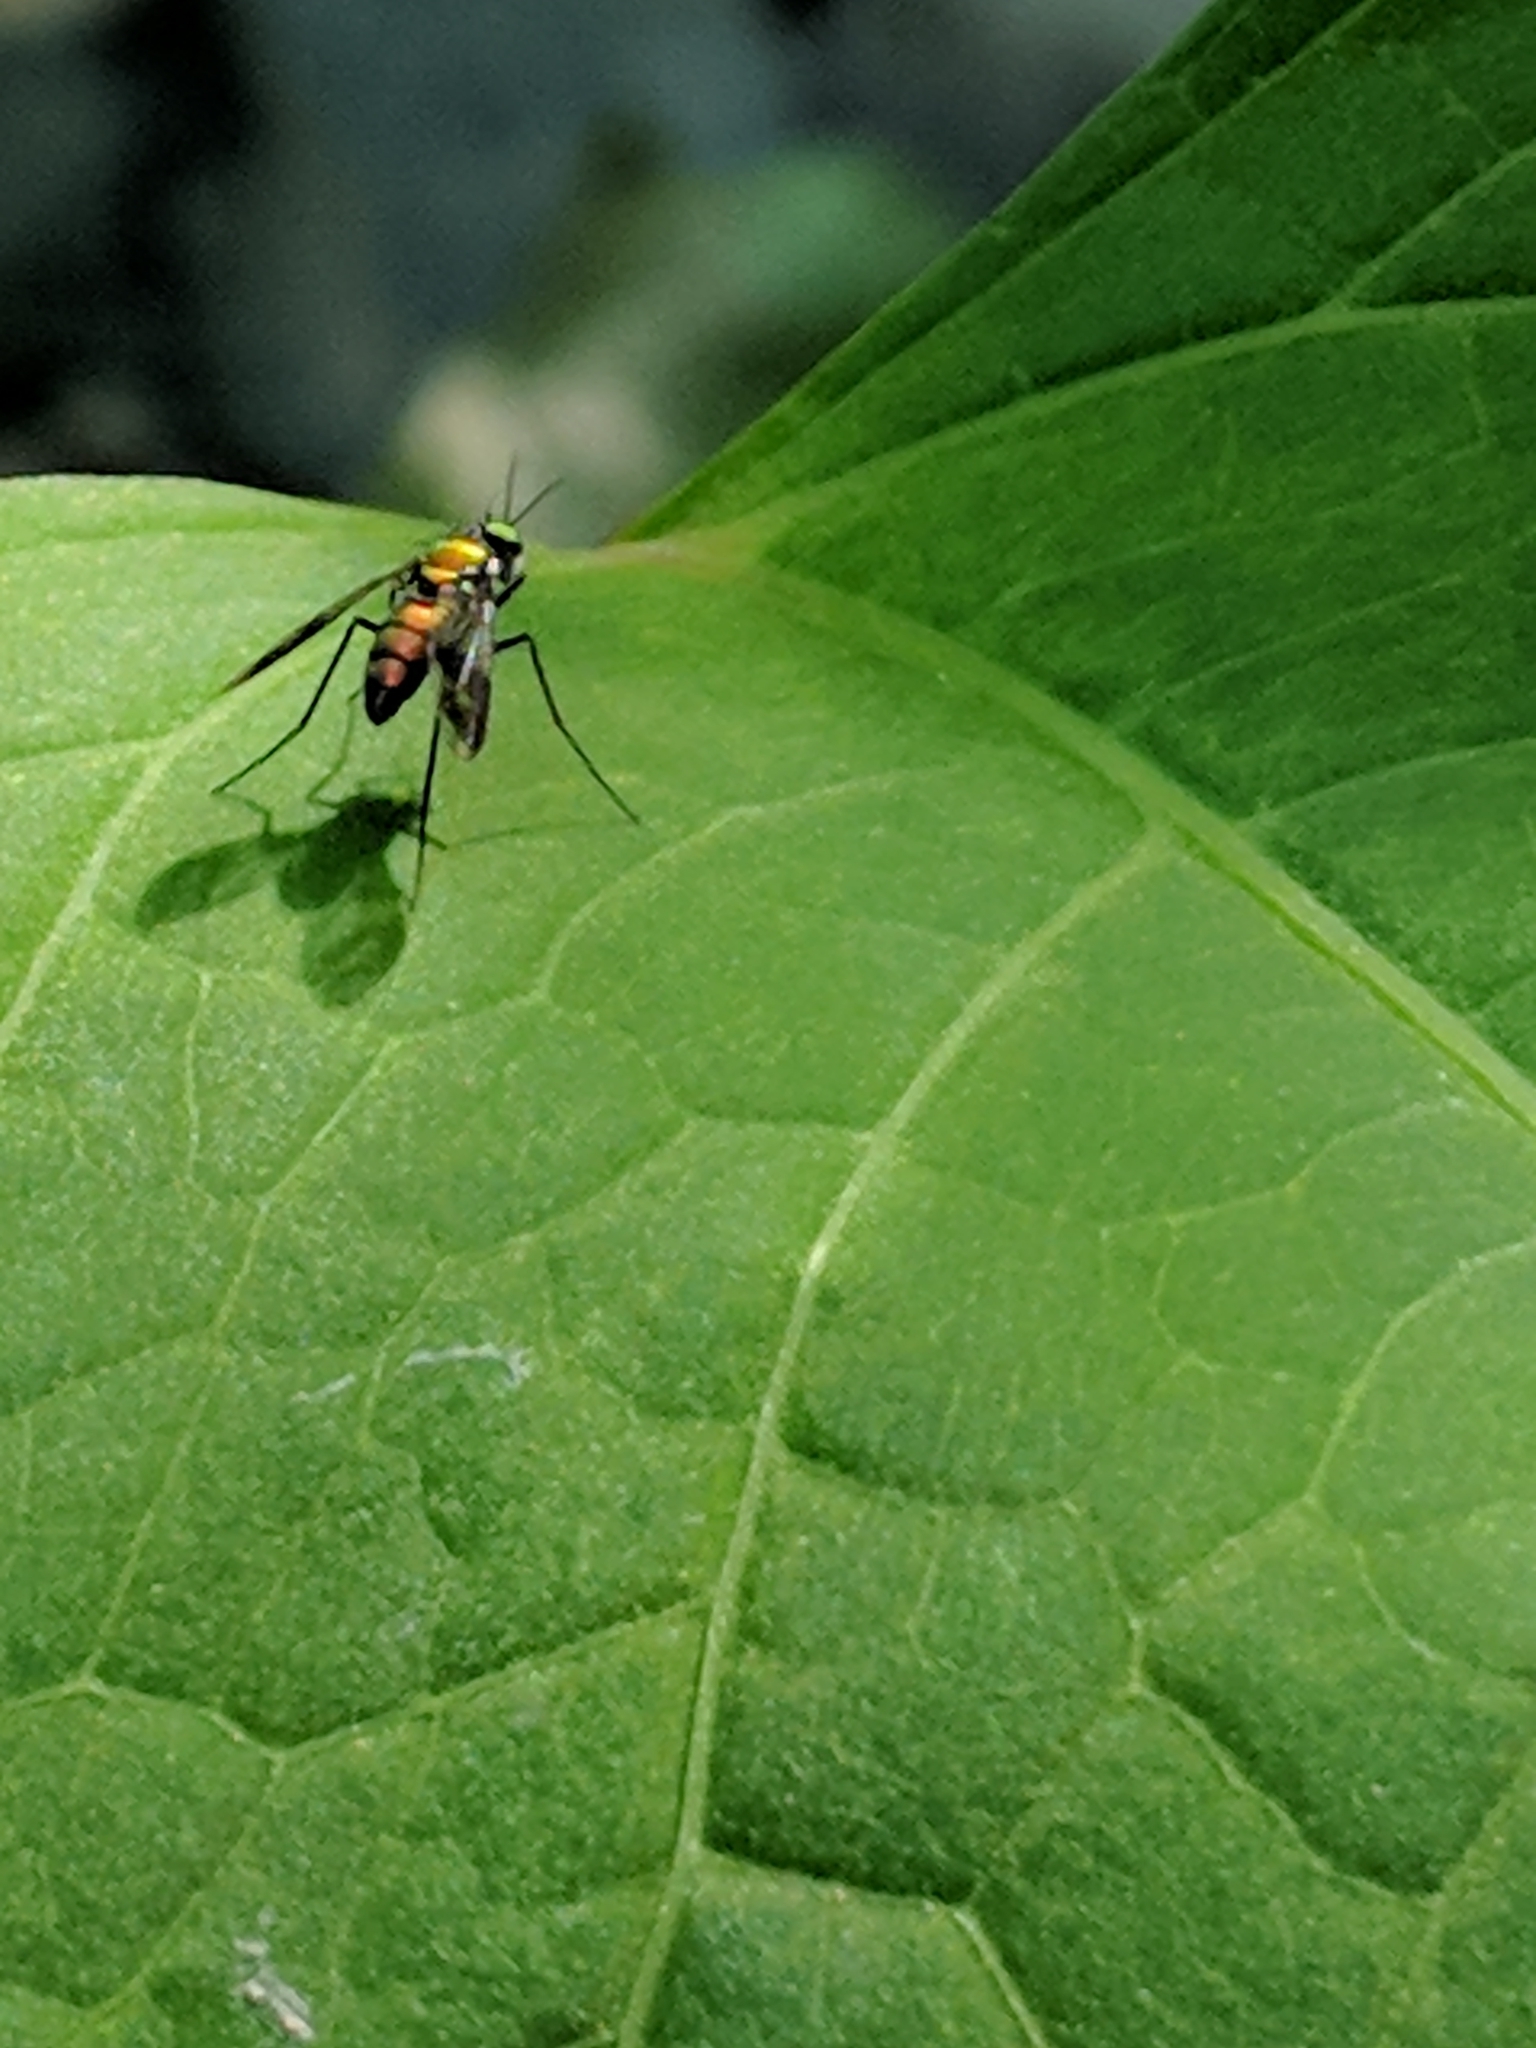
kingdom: Animalia
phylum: Arthropoda
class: Insecta
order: Diptera
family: Dolichopodidae
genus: Condylostylus
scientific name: Condylostylus patibulatus
